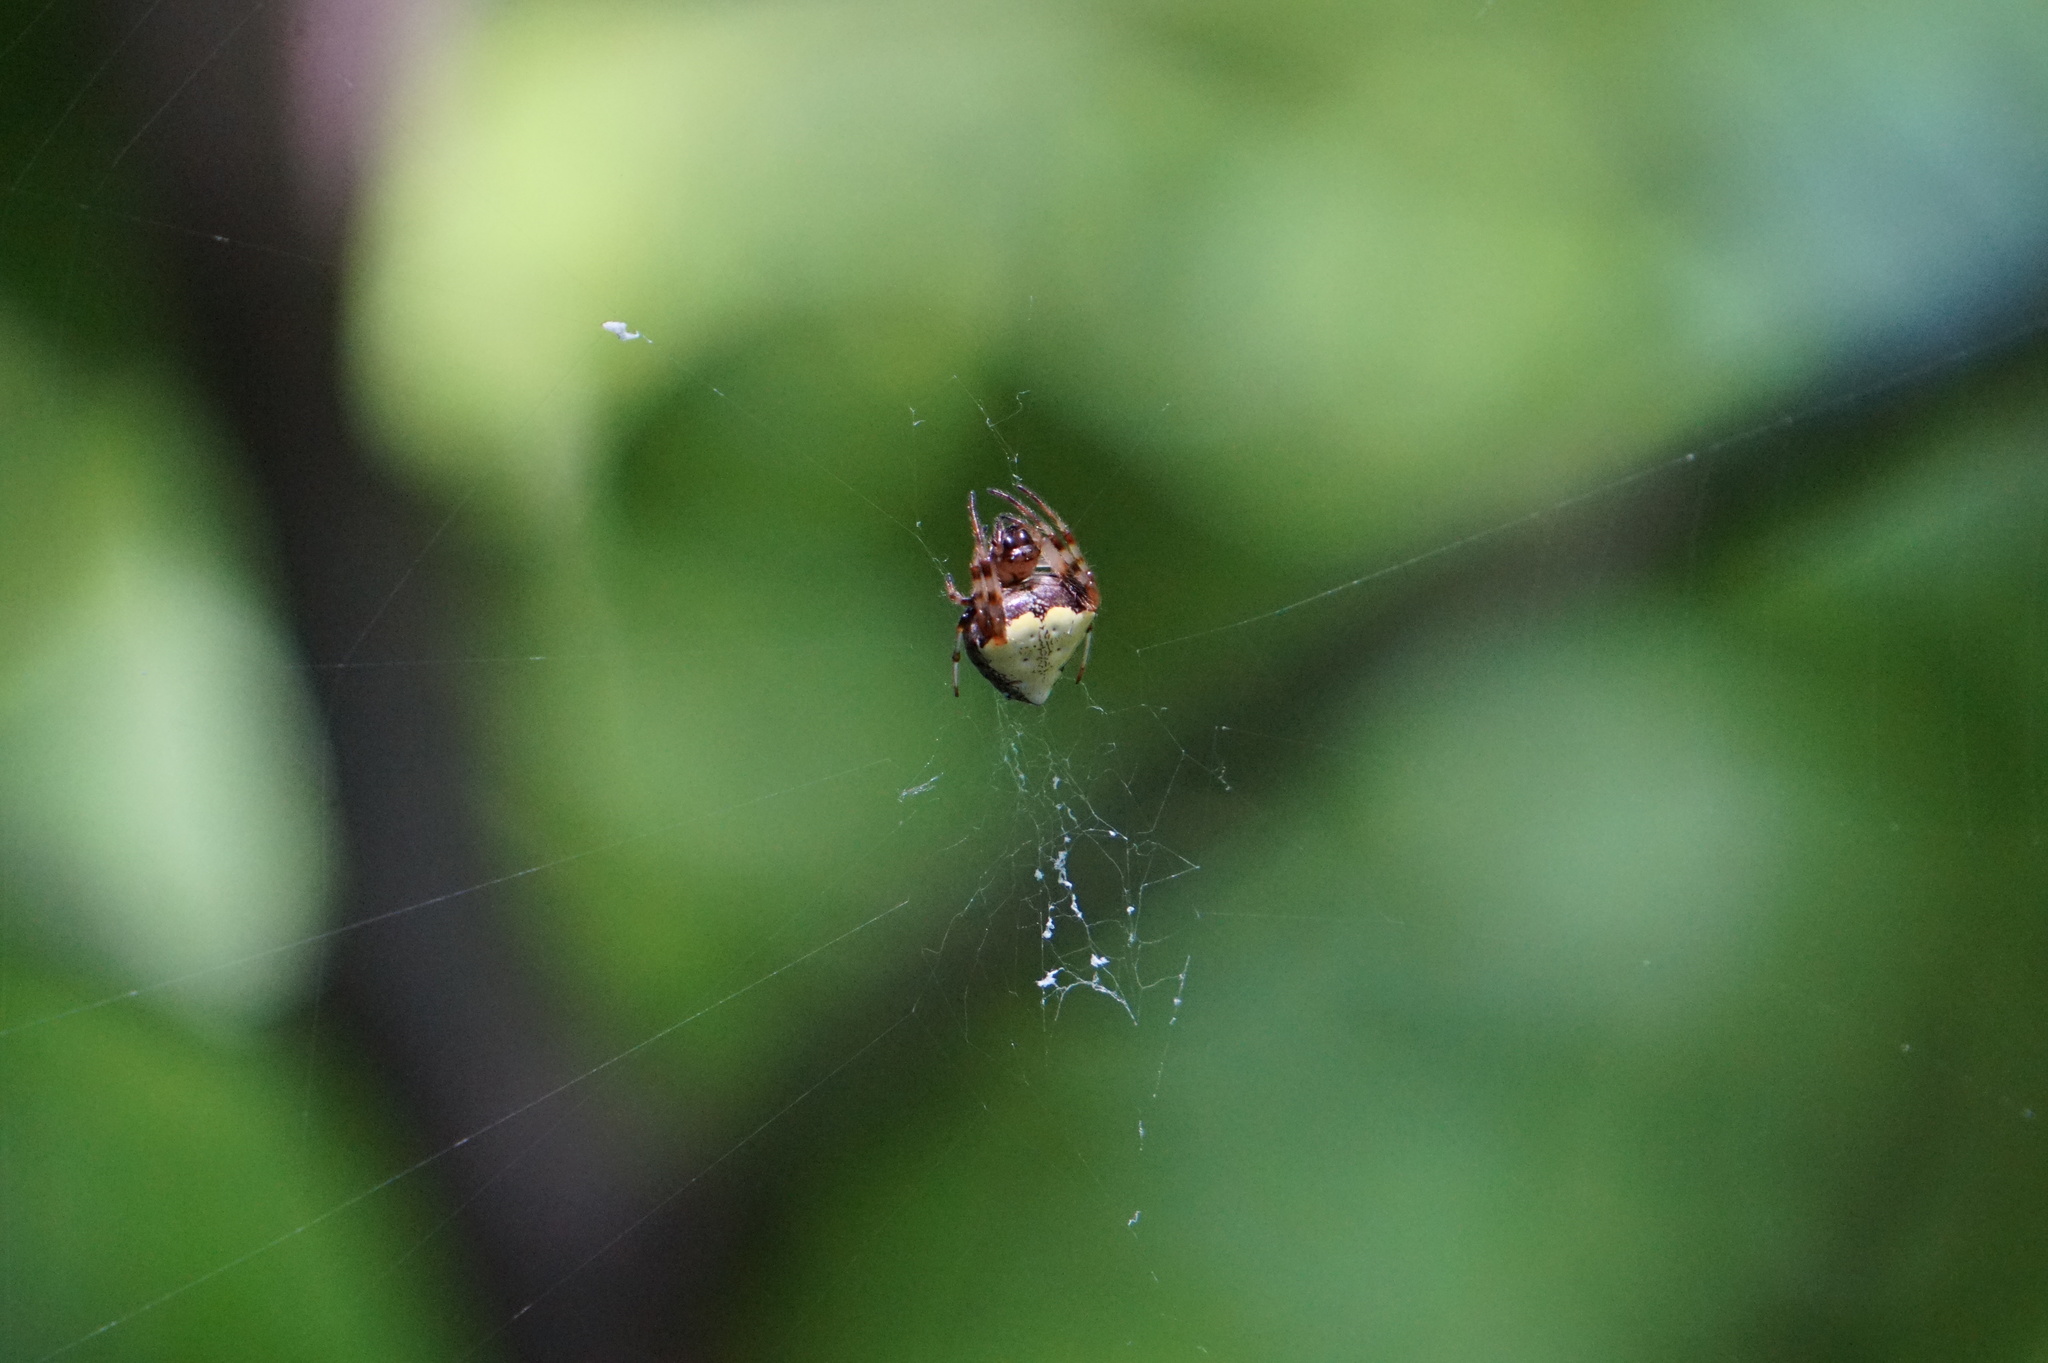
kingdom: Animalia
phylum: Arthropoda
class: Arachnida
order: Araneae
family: Araneidae
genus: Verrucosa
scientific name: Verrucosa arenata
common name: Orb weavers
